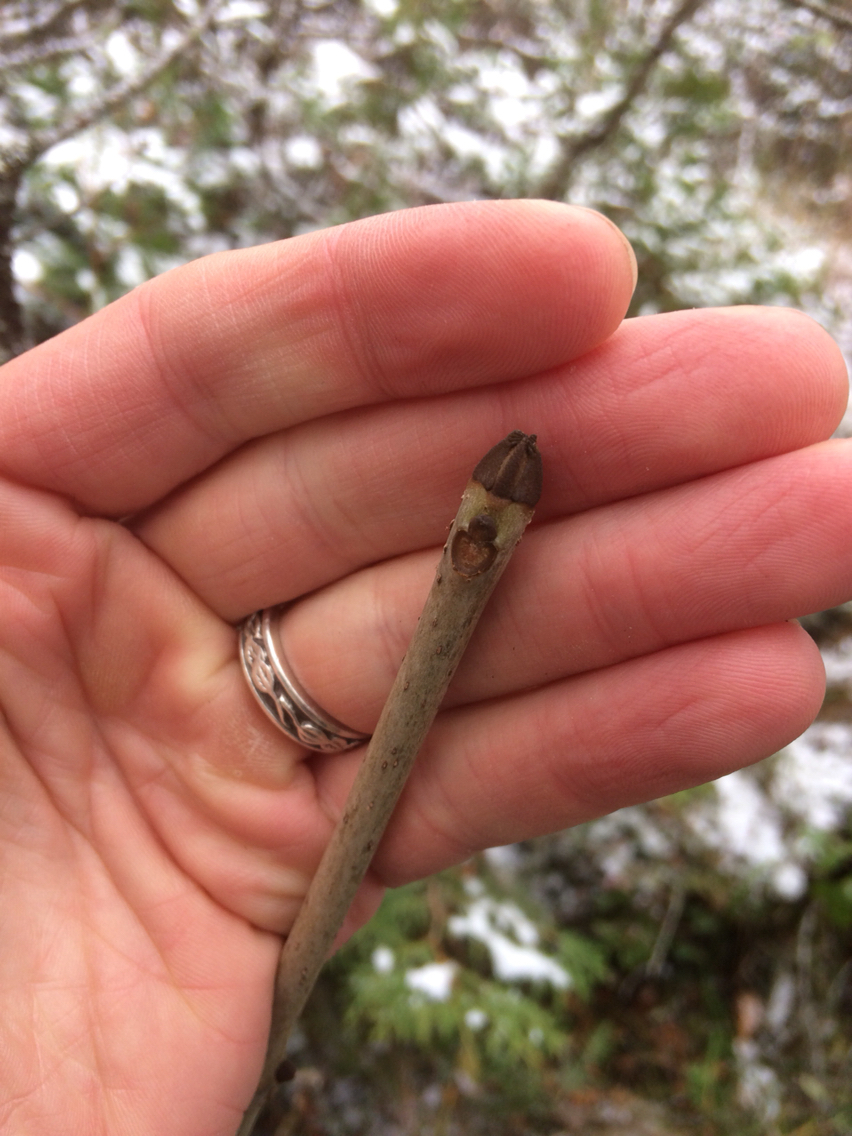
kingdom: Plantae
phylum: Tracheophyta
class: Magnoliopsida
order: Lamiales
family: Oleaceae
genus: Fraxinus
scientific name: Fraxinus nigra
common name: Black ash
